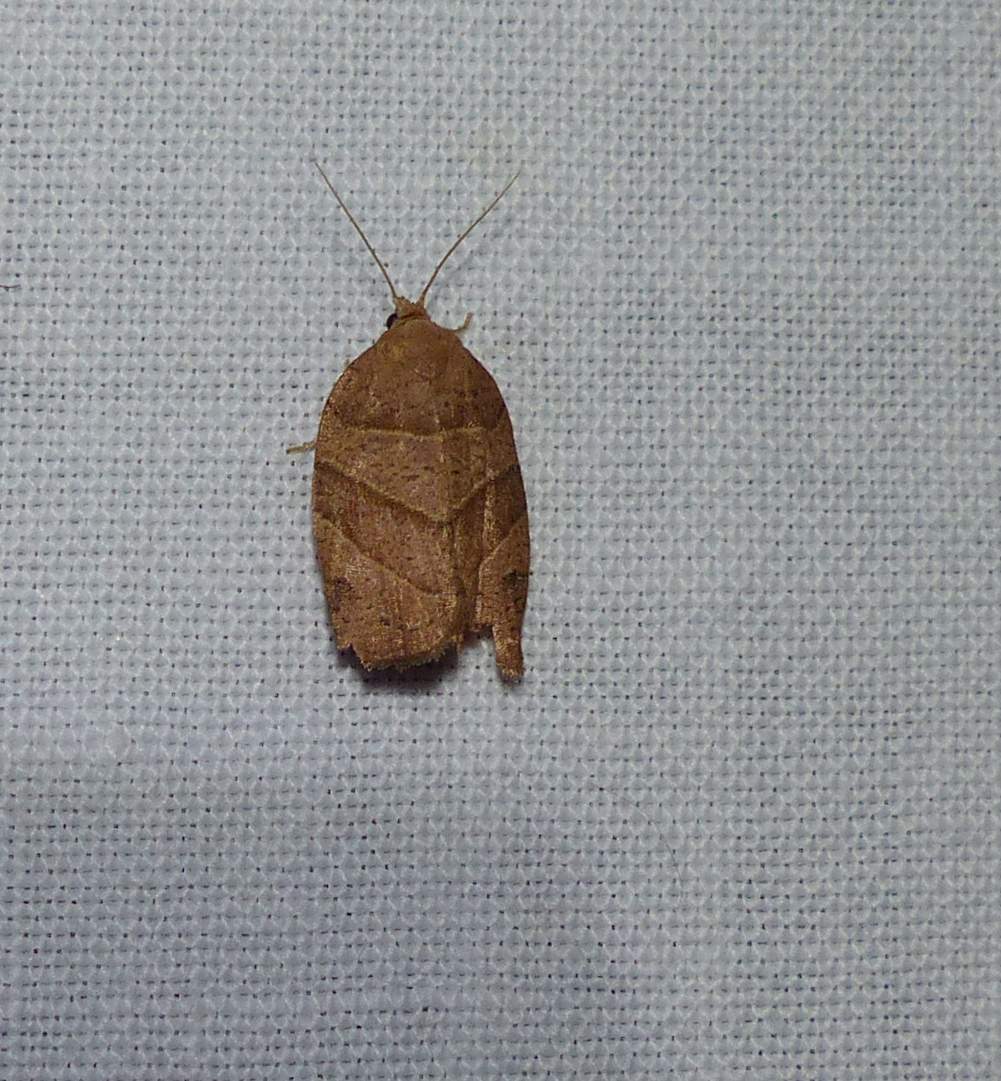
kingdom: Animalia
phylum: Arthropoda
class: Insecta
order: Lepidoptera
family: Tortricidae
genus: Pandemis
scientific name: Pandemis lamprosana
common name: Woodgrain leafroller moth
